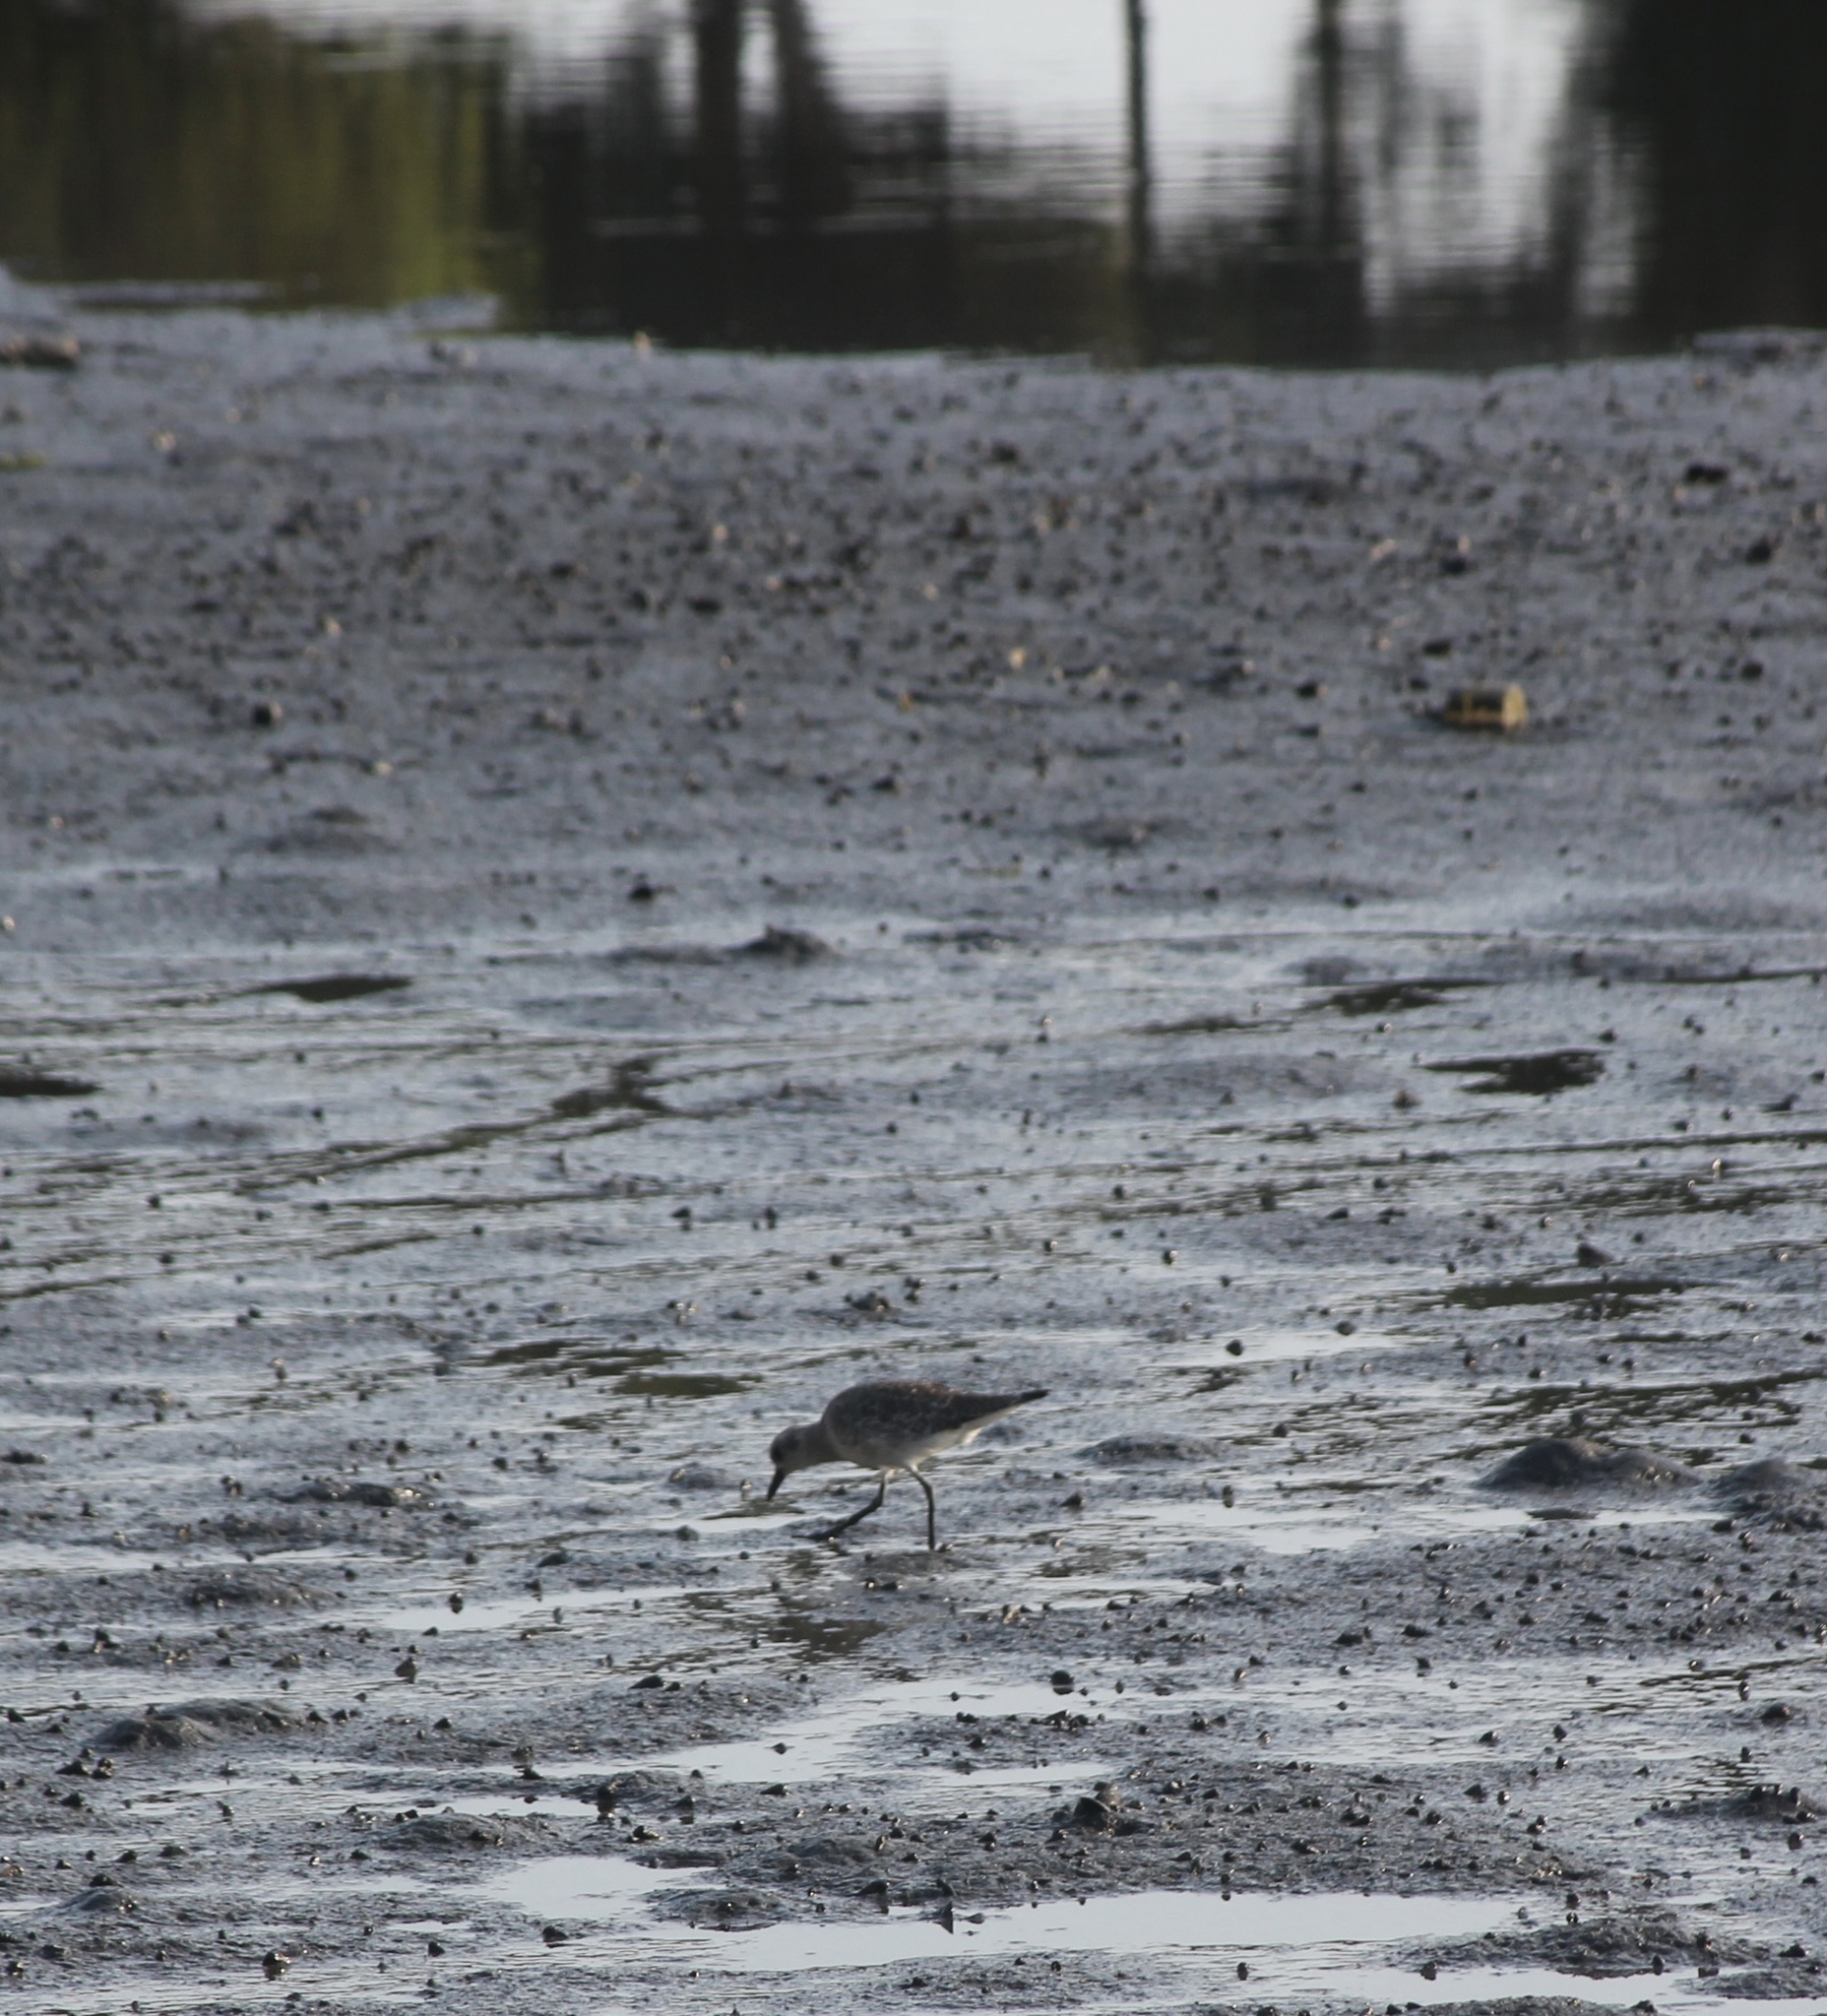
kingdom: Animalia
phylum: Chordata
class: Aves
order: Charadriiformes
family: Charadriidae
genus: Pluvialis
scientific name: Pluvialis squatarola
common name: Grey plover
